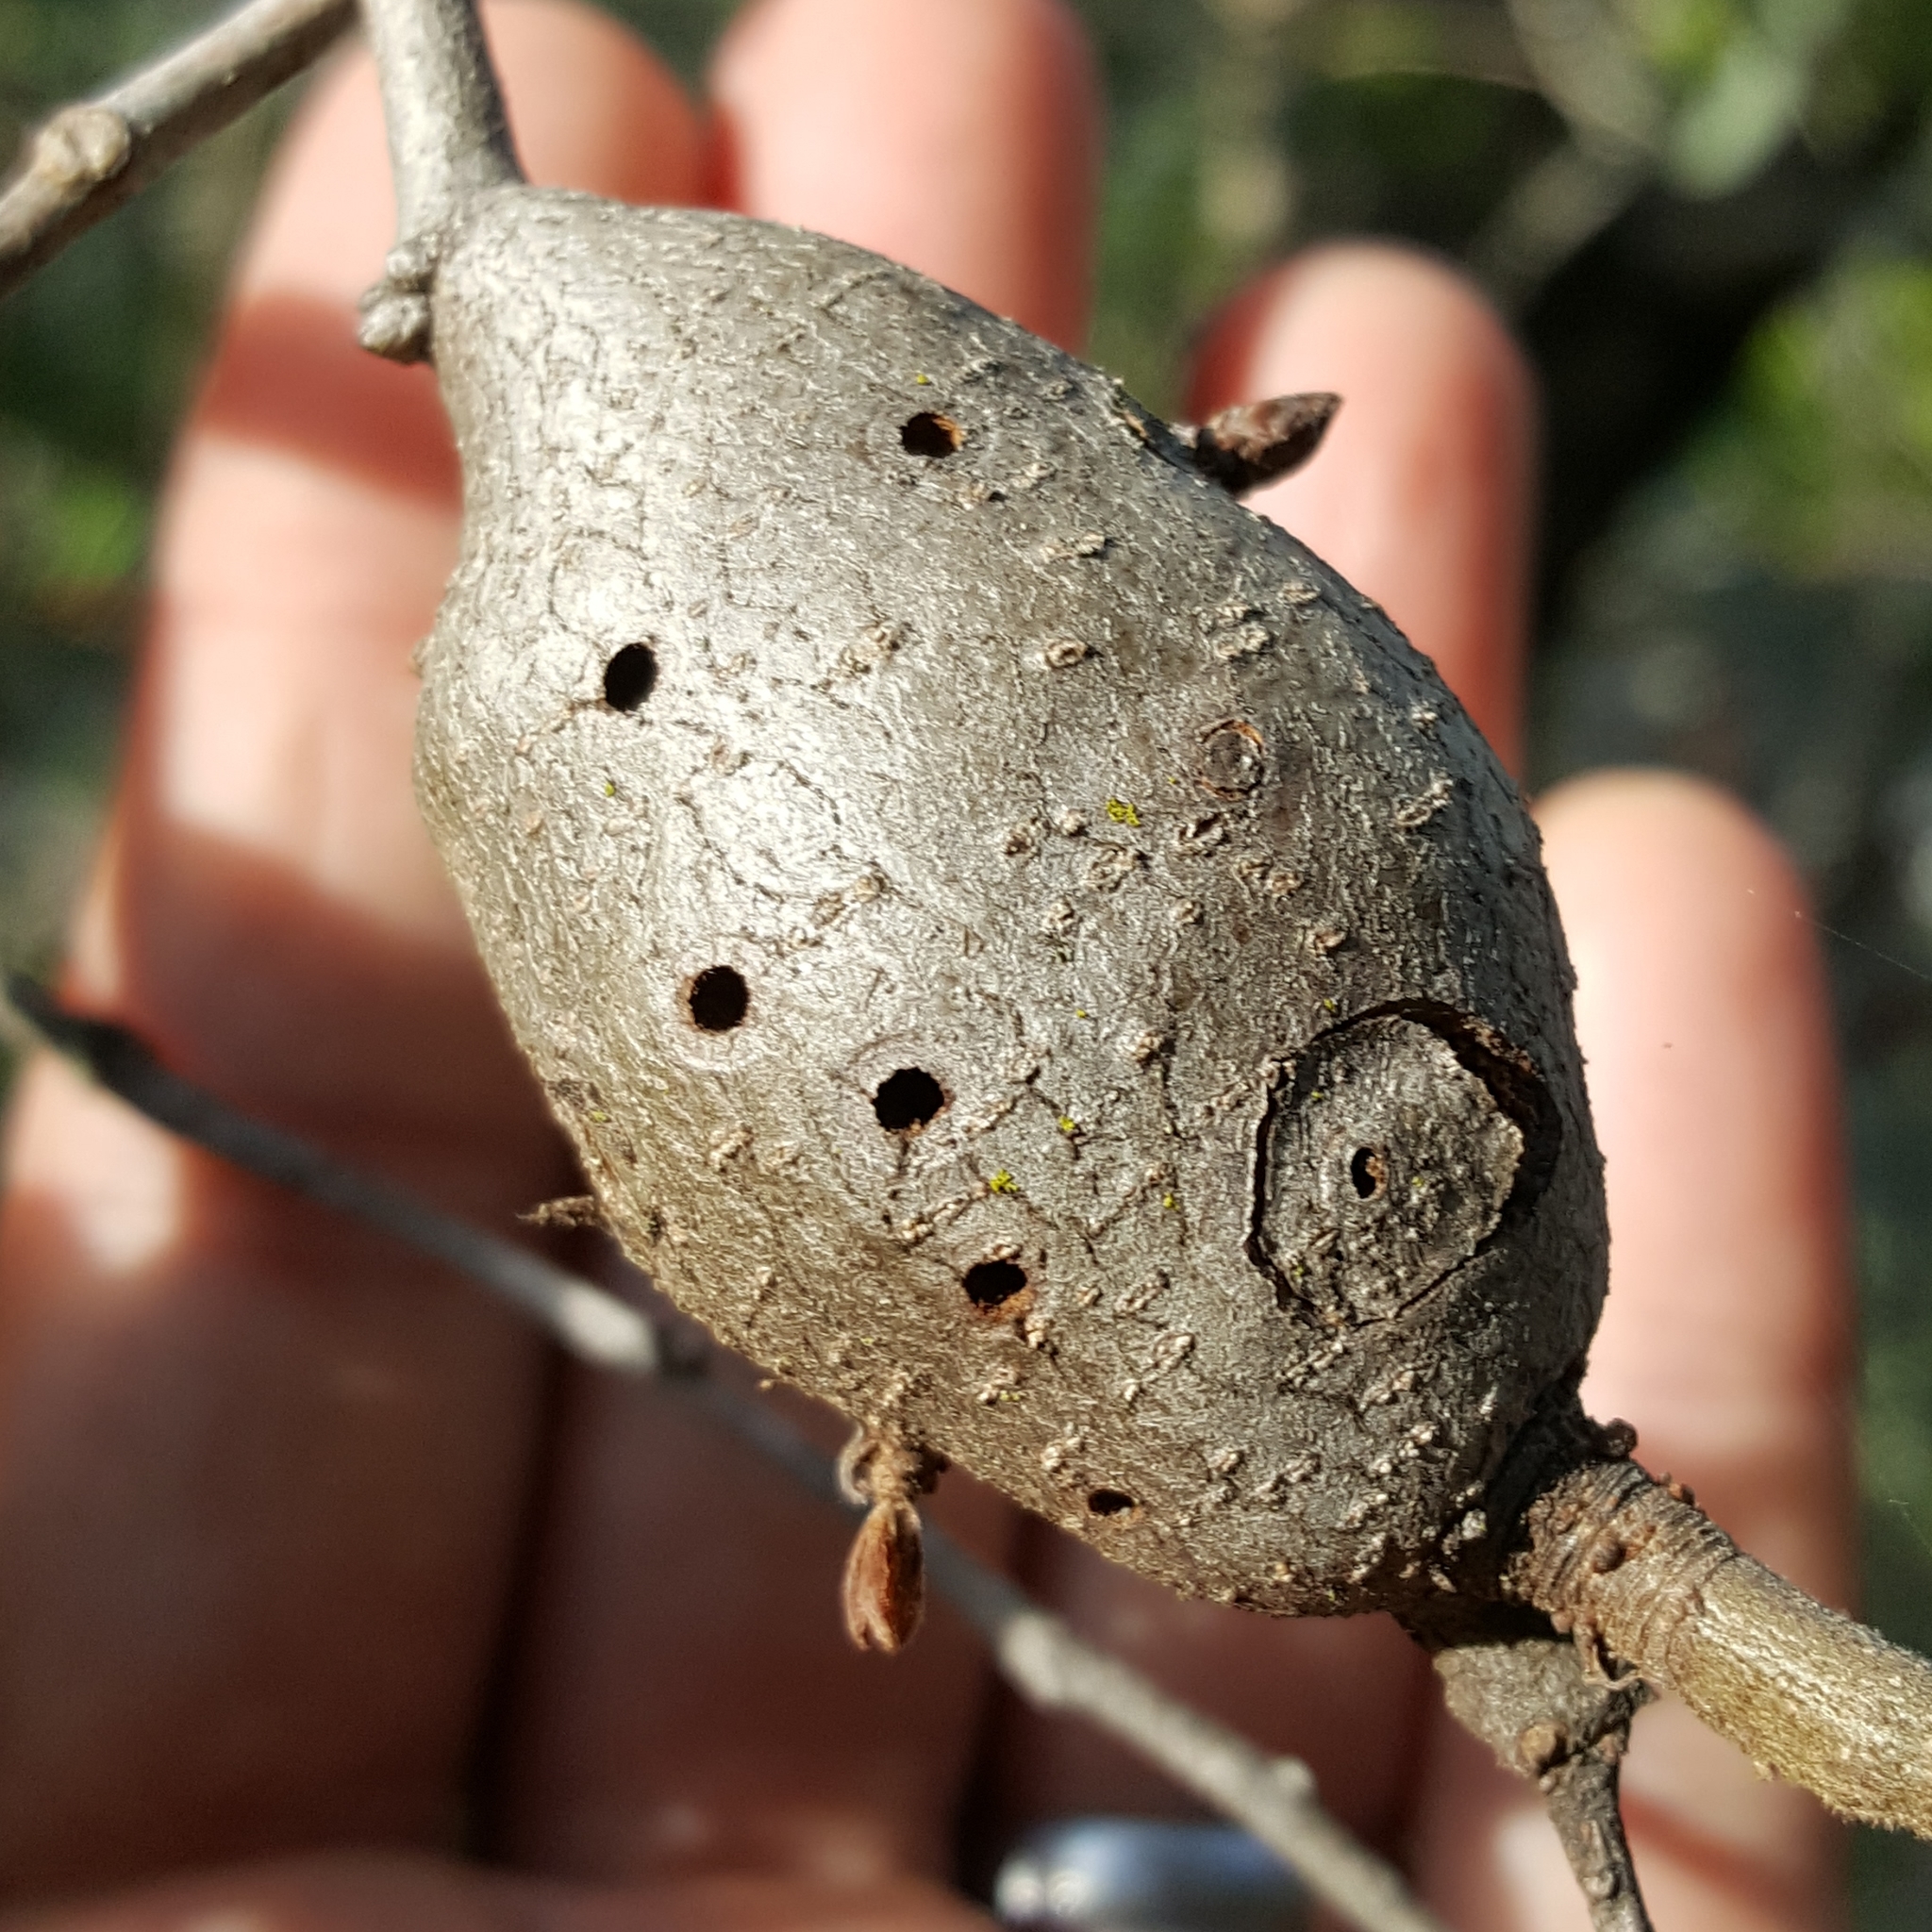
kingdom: Animalia
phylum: Arthropoda
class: Insecta
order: Hymenoptera
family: Cynipidae
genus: Disholcaspis
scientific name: Disholcaspis spectabilis
